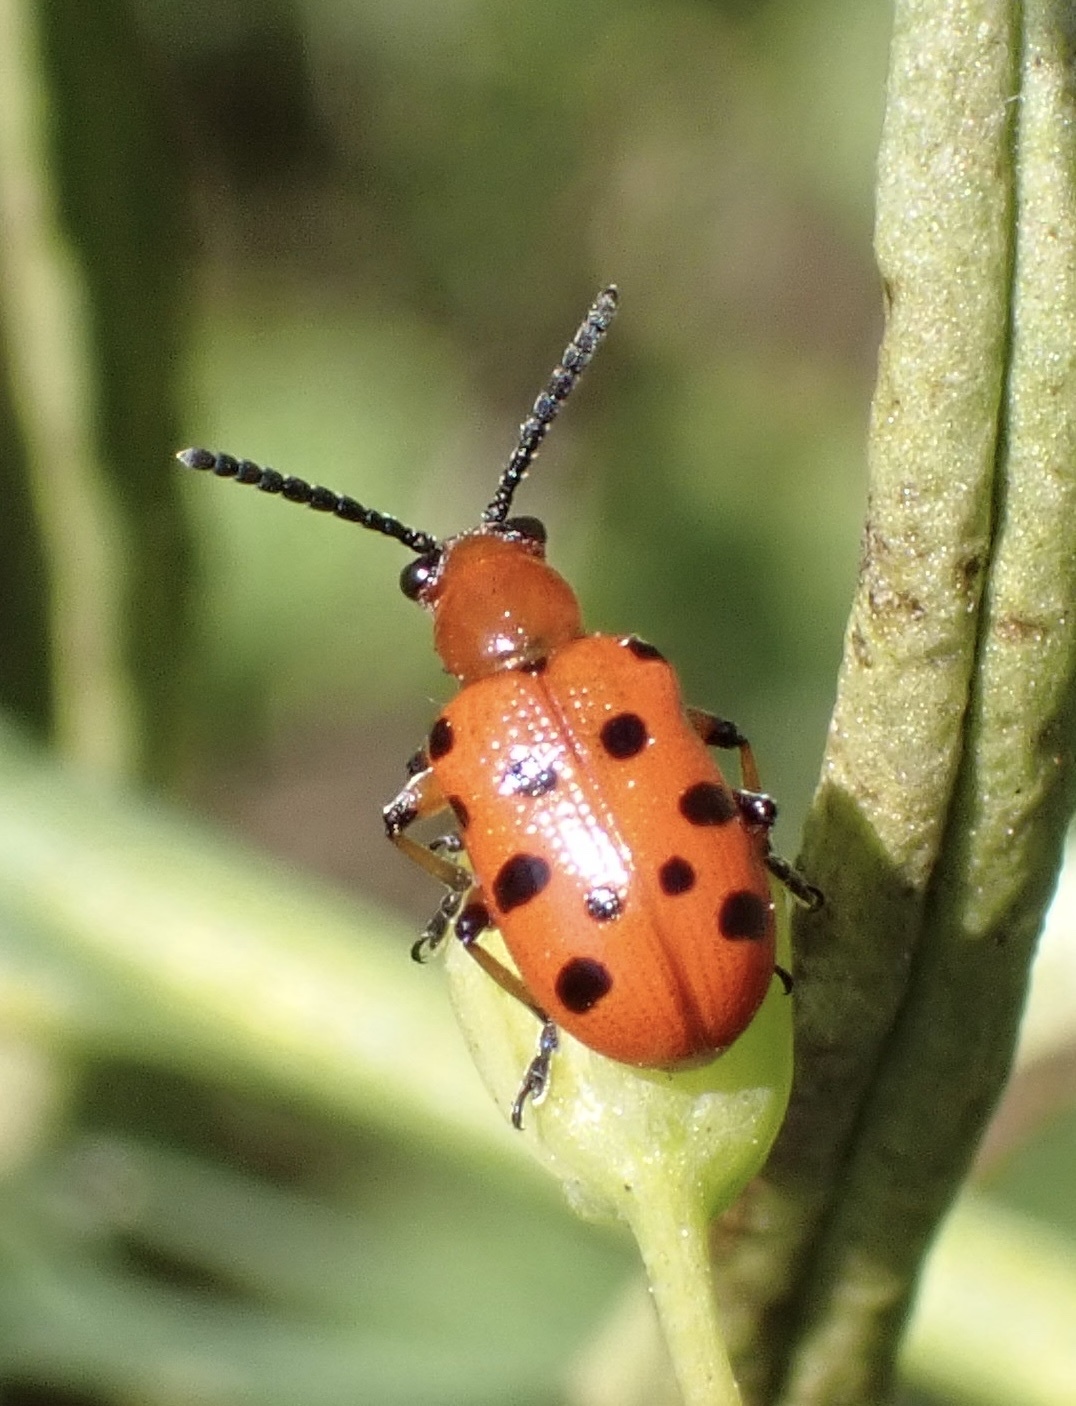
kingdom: Animalia
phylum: Arthropoda
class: Insecta
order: Coleoptera
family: Chrysomelidae
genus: Crioceris
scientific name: Crioceris duodecimpunctata
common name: Twelve-spotted asparagus beetle
